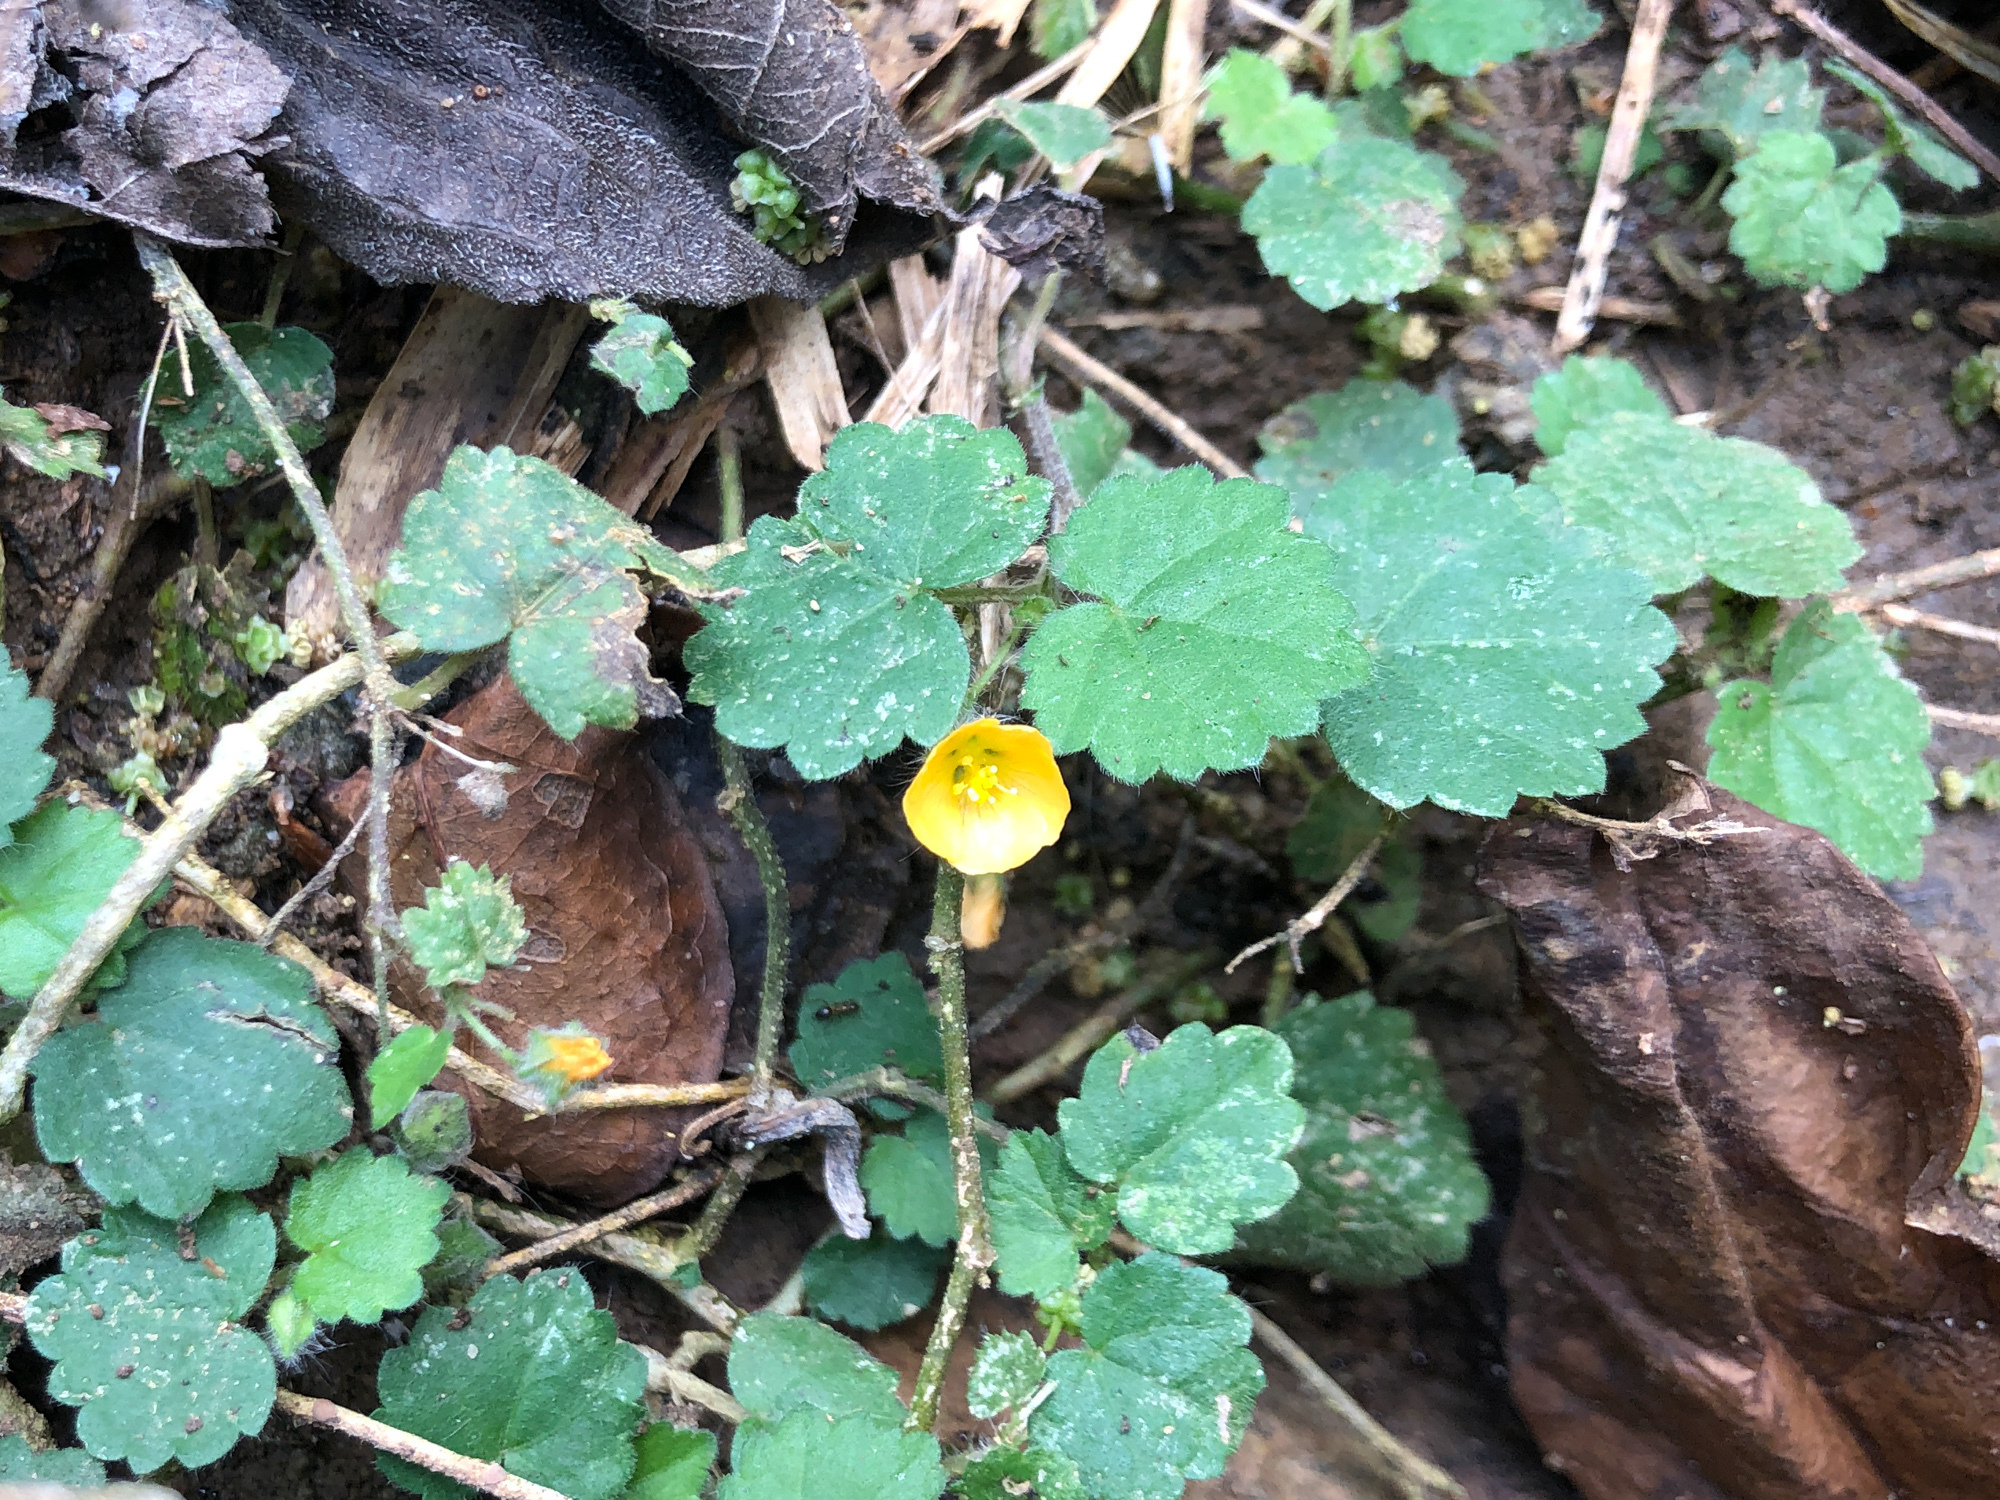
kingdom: Plantae
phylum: Tracheophyta
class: Magnoliopsida
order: Malvales
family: Malvaceae
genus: Sida
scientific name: Sida javensis
